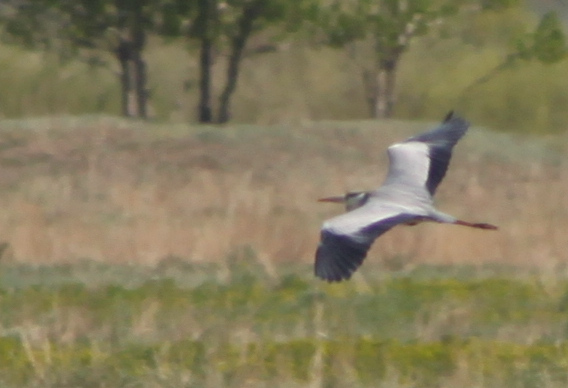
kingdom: Animalia
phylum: Chordata
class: Aves
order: Pelecaniformes
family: Ardeidae
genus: Ardea
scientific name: Ardea cinerea
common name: Grey heron
